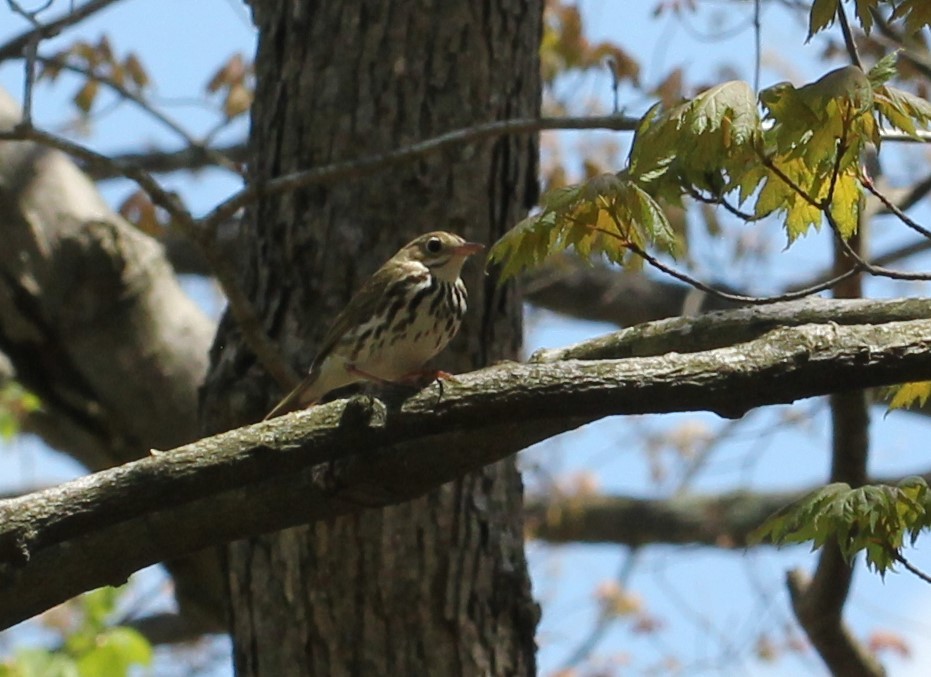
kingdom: Animalia
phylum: Chordata
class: Aves
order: Passeriformes
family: Parulidae
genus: Seiurus
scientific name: Seiurus aurocapilla
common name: Ovenbird
